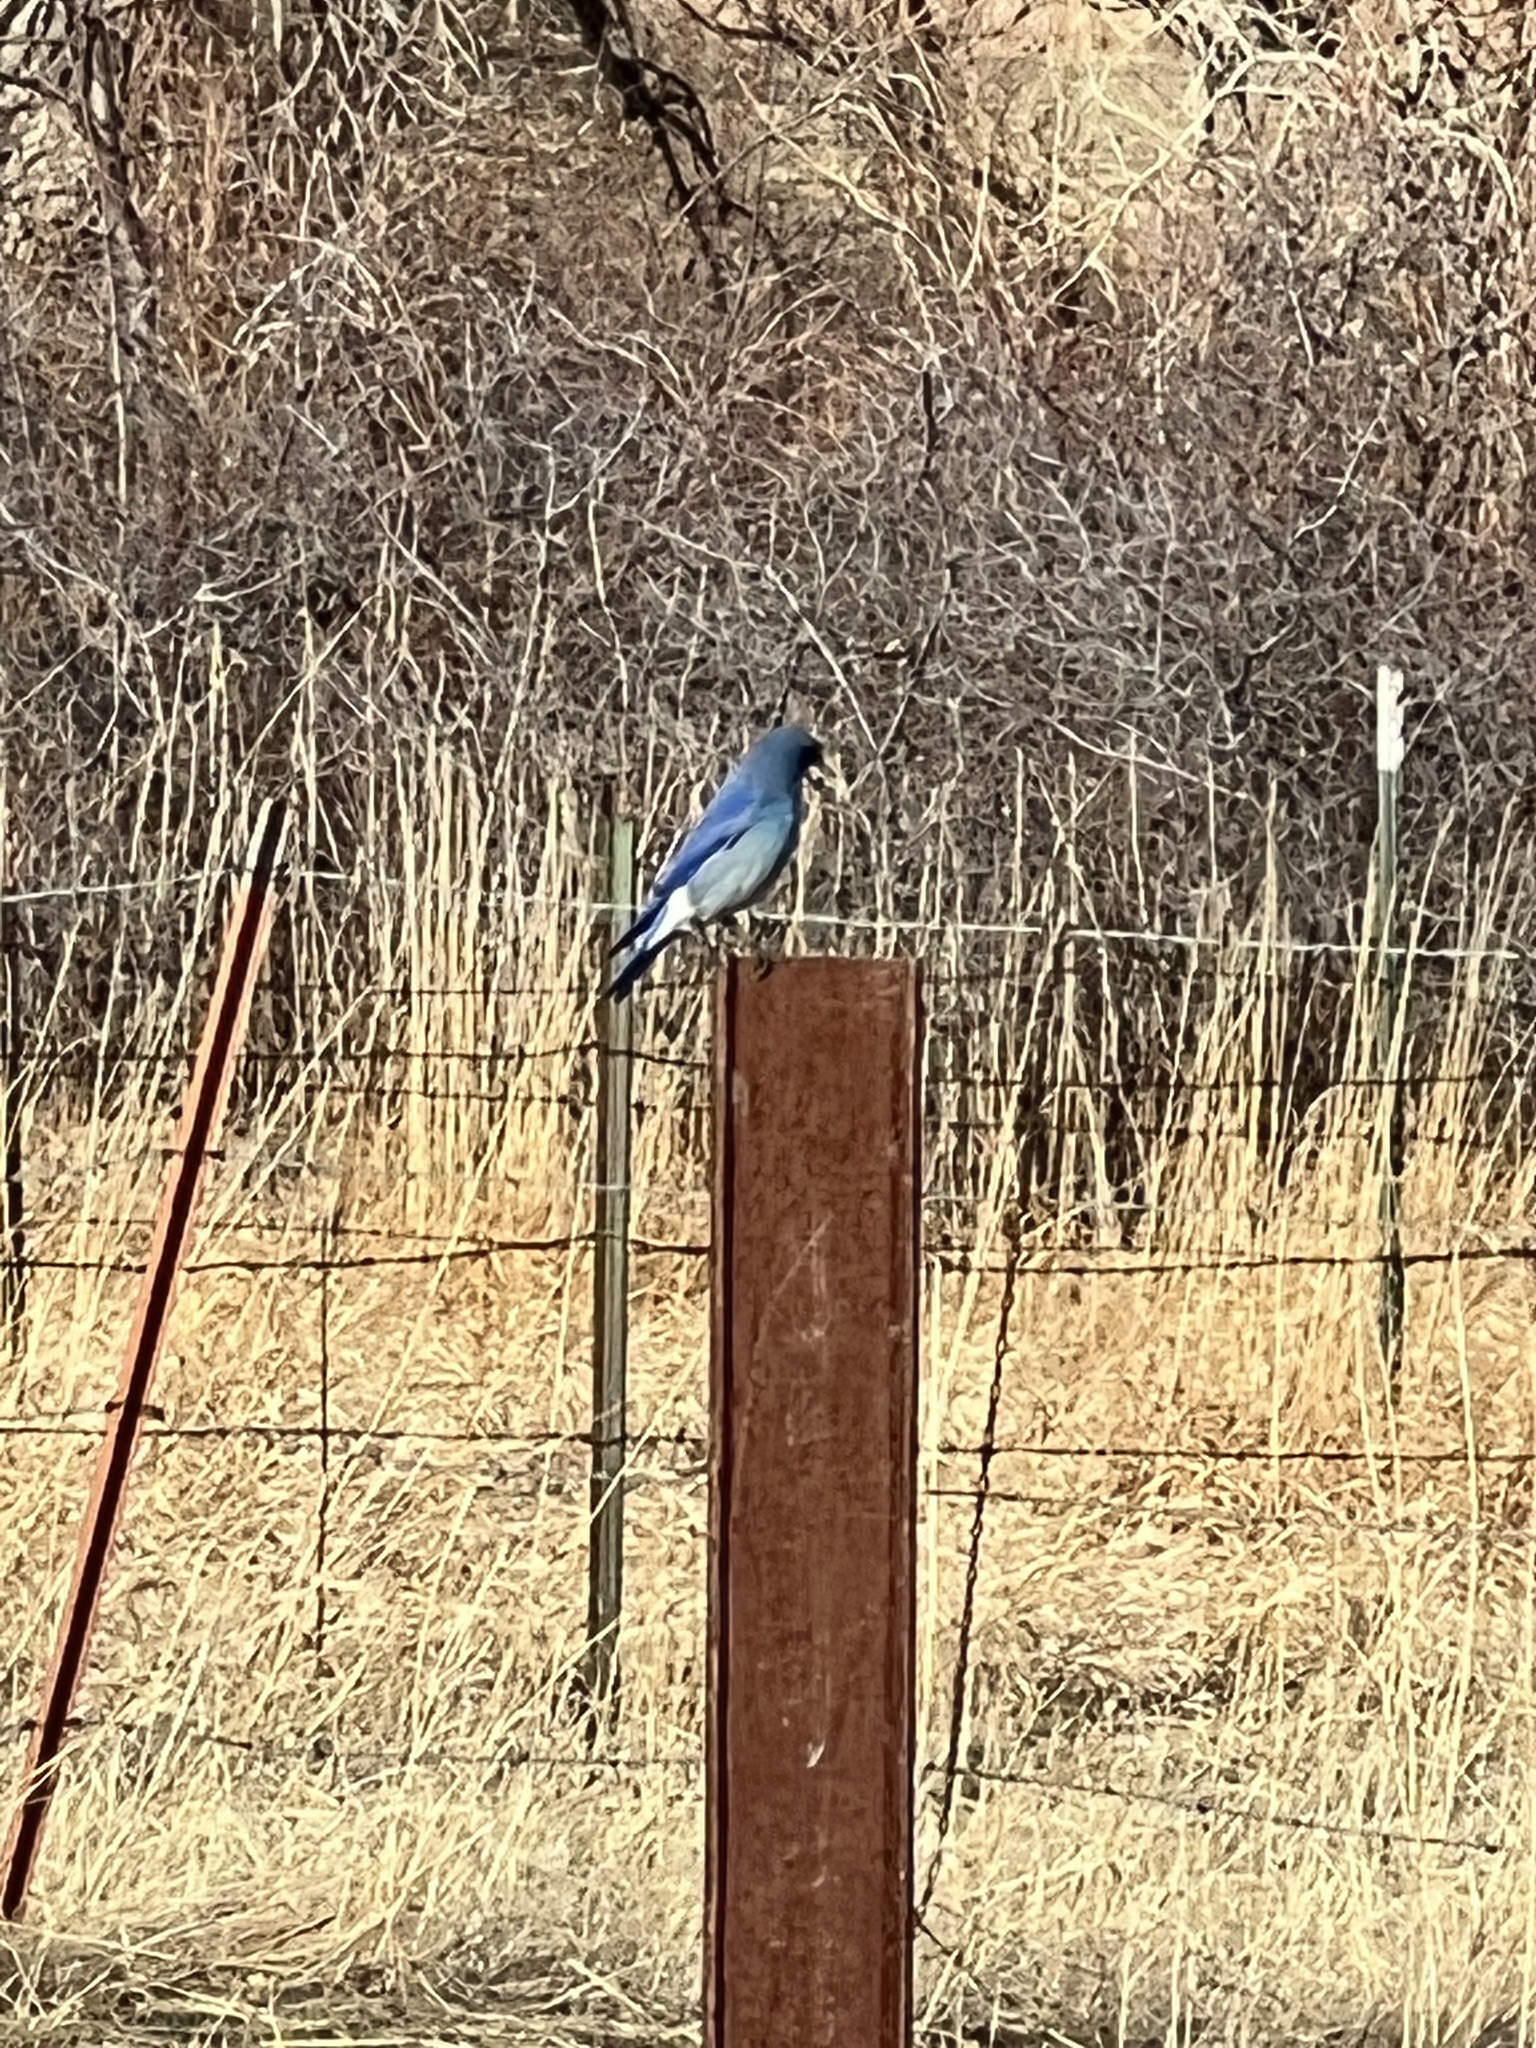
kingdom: Animalia
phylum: Chordata
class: Aves
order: Passeriformes
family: Turdidae
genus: Sialia
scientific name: Sialia currucoides
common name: Mountain bluebird
